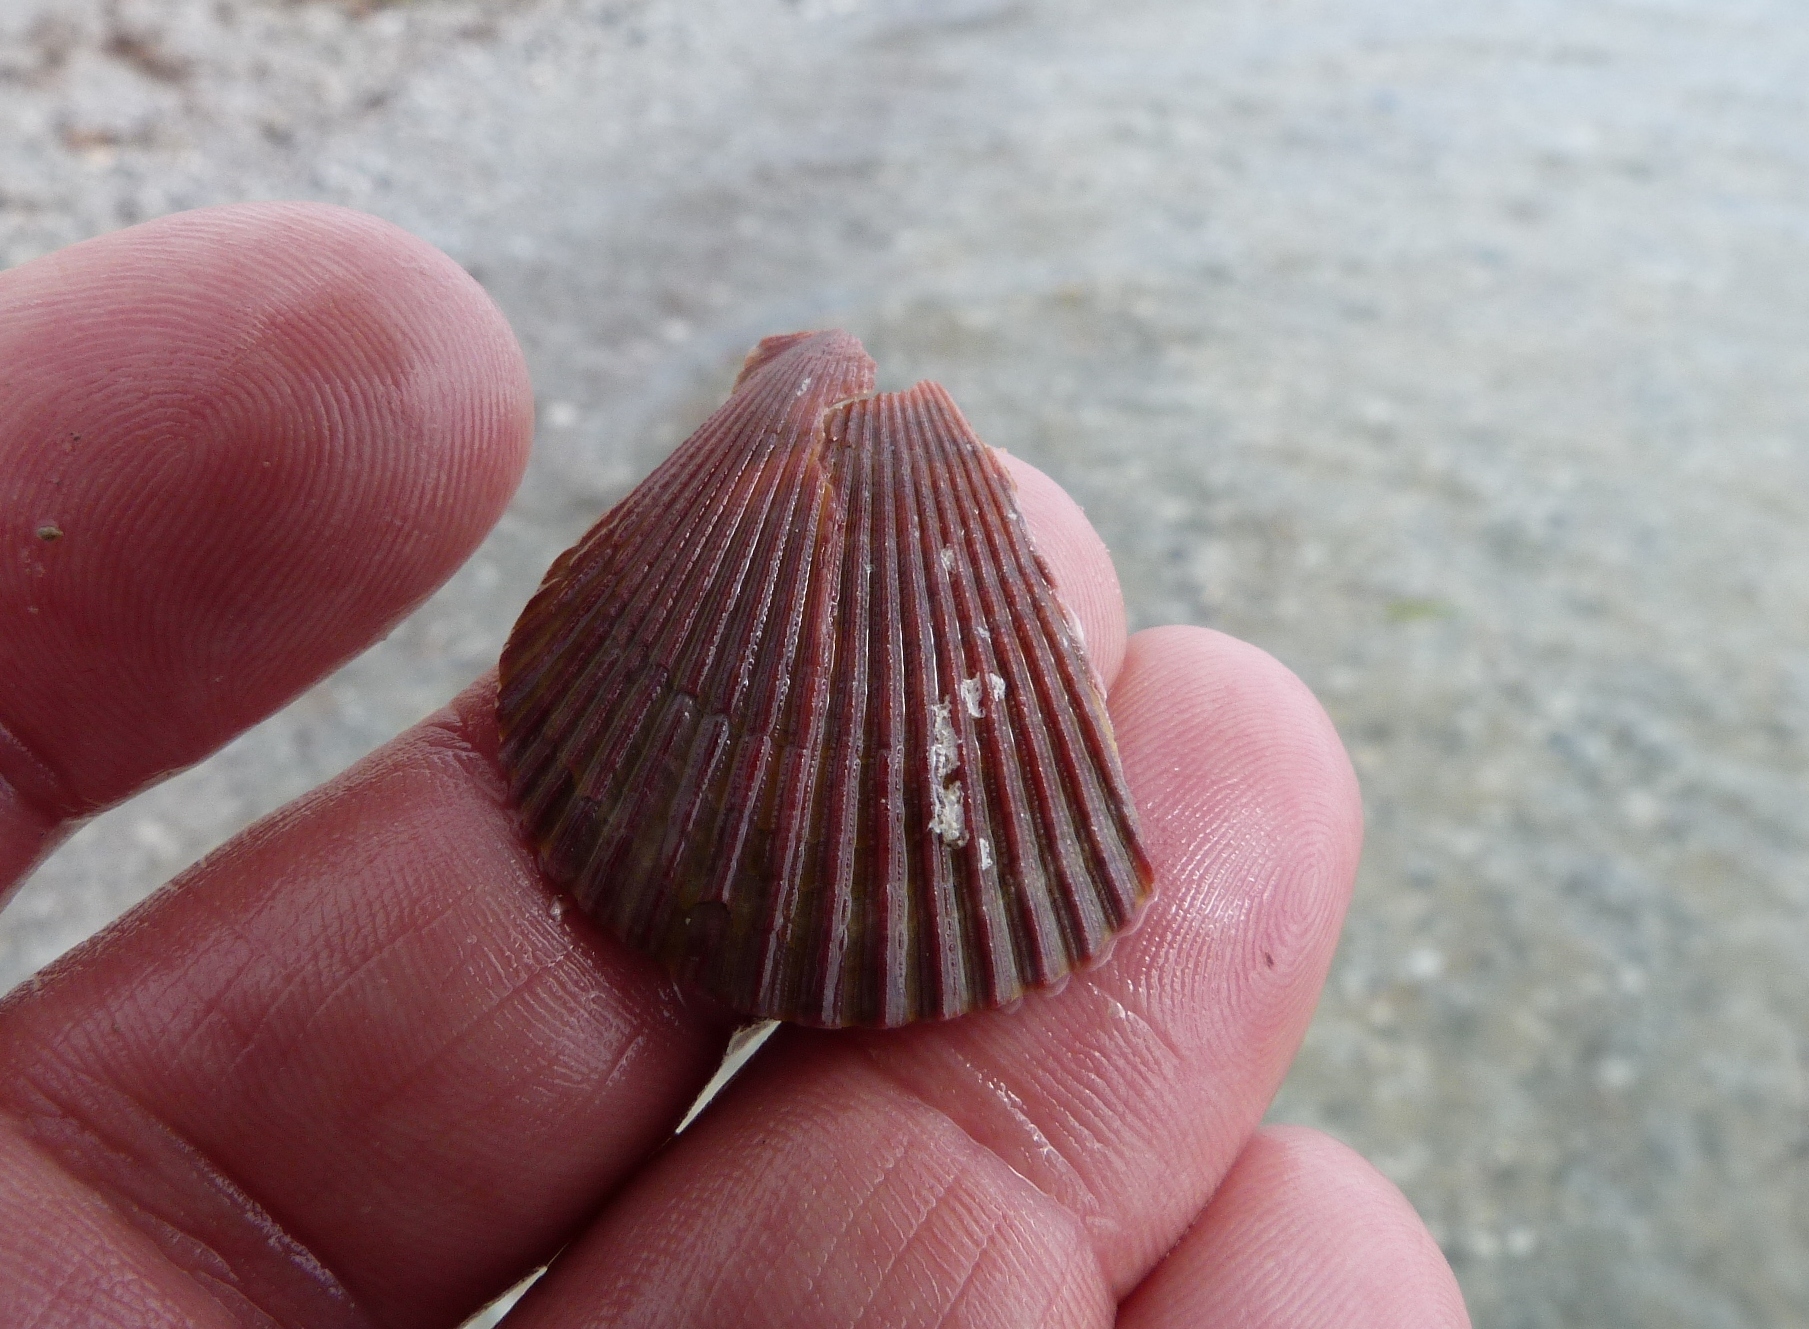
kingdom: Animalia
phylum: Mollusca
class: Bivalvia
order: Pectinida
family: Pectinidae
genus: Mimachlamys
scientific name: Mimachlamys asperrima
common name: Austral scallop
